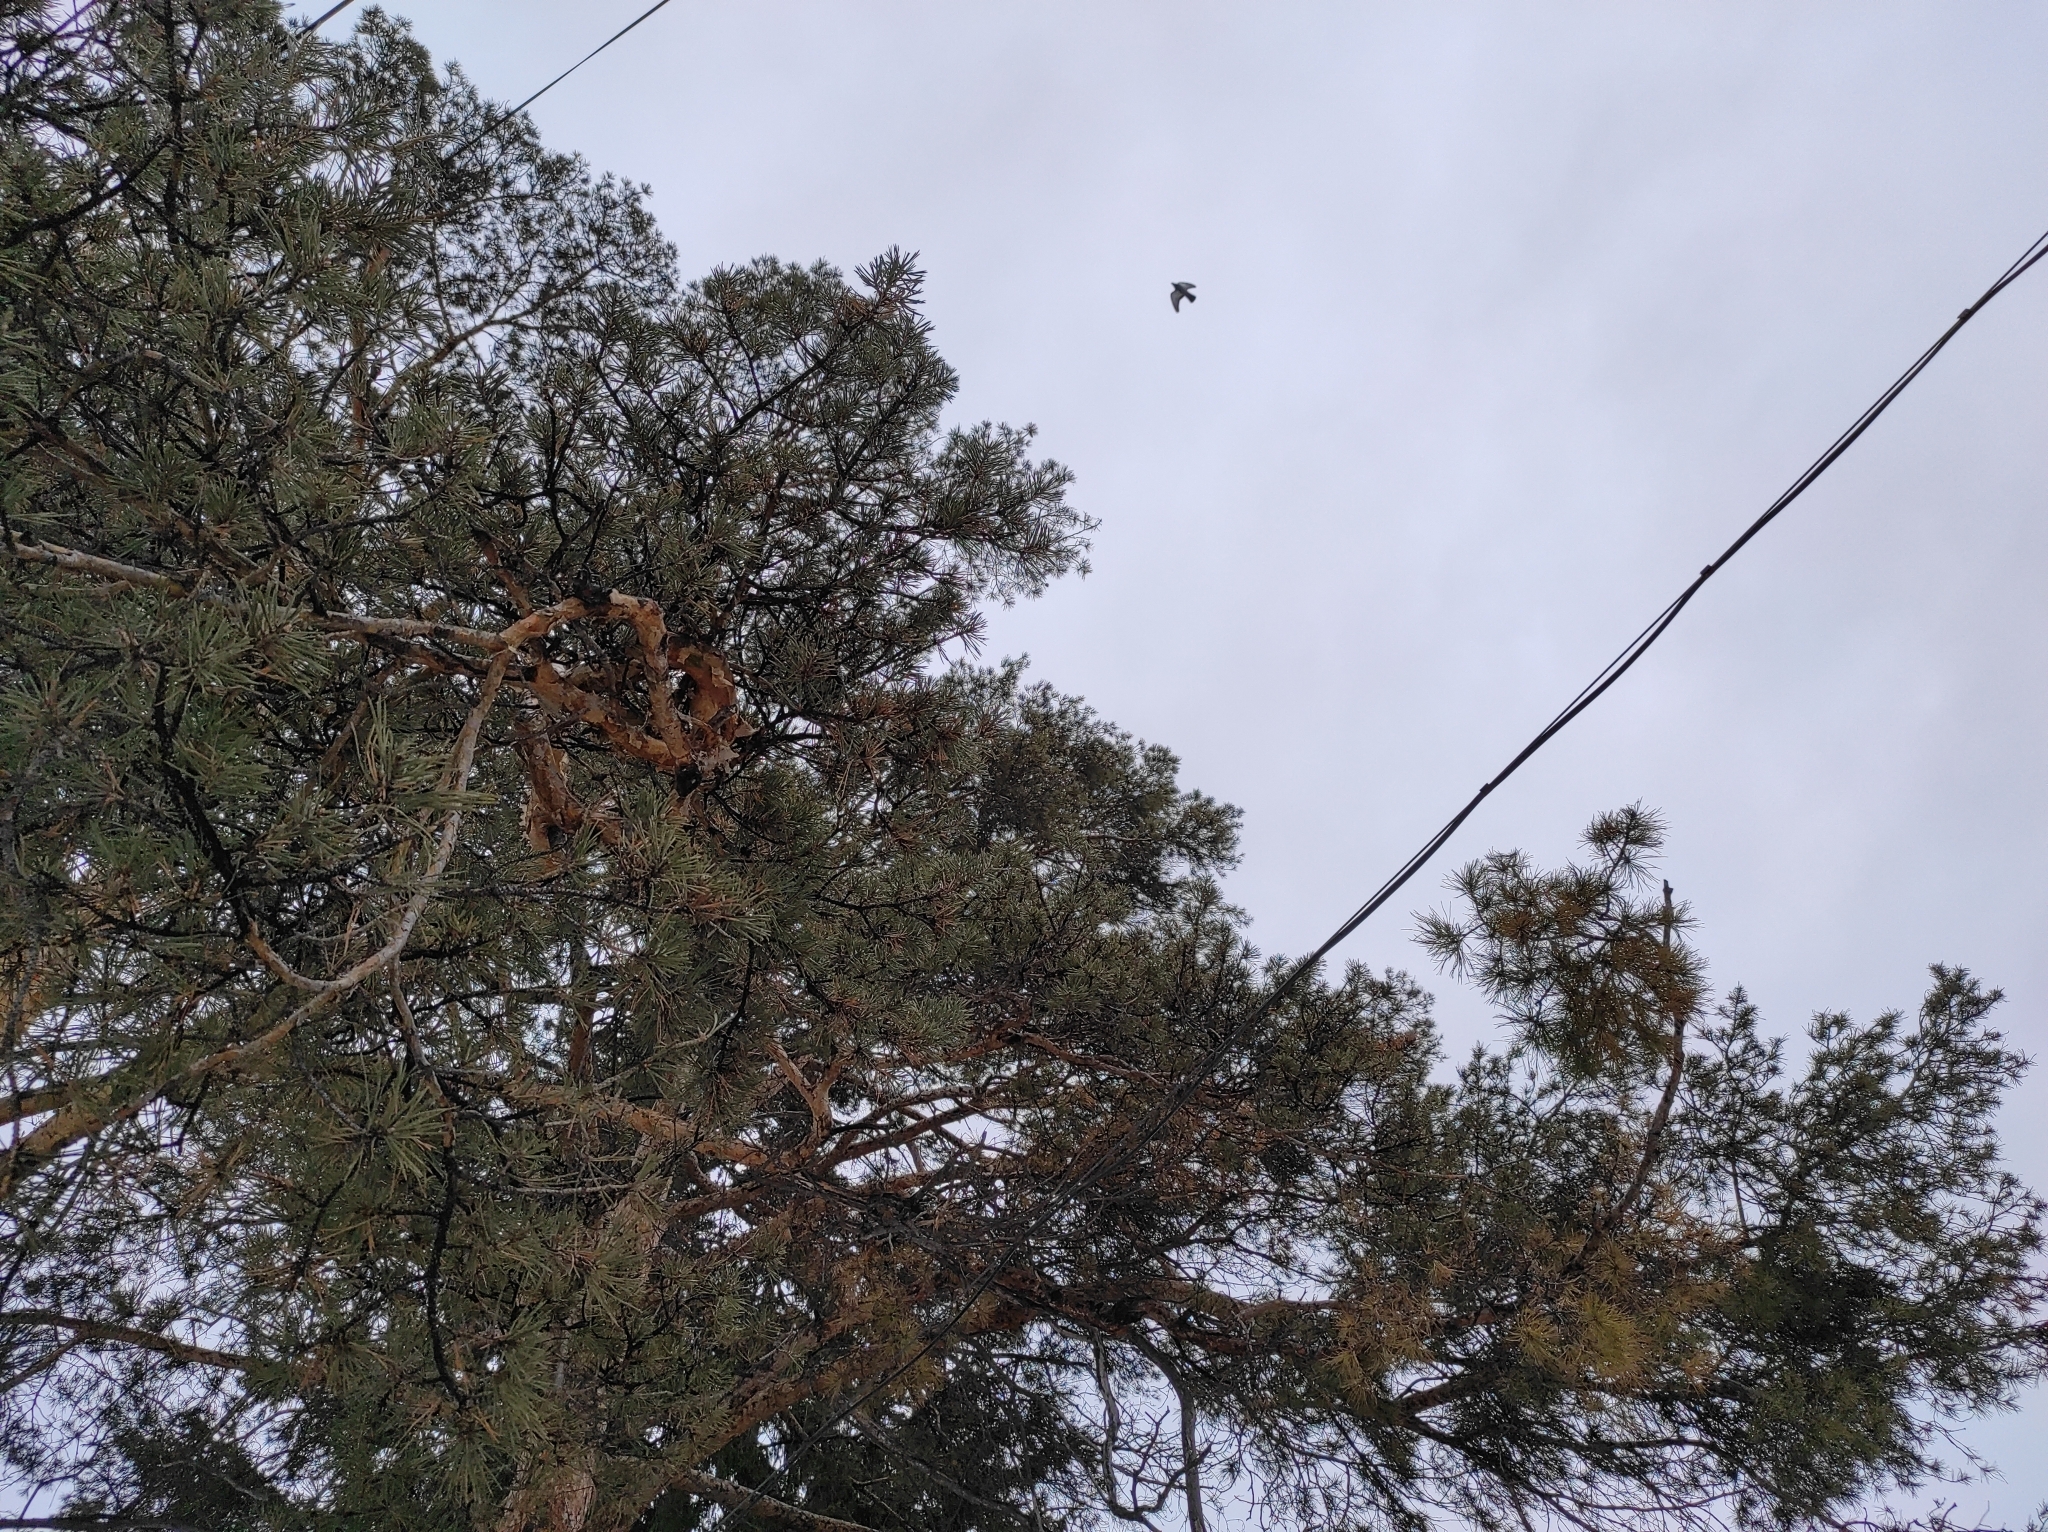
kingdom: Plantae
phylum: Tracheophyta
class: Pinopsida
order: Pinales
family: Pinaceae
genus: Pinus
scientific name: Pinus sylvestris
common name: Scots pine
